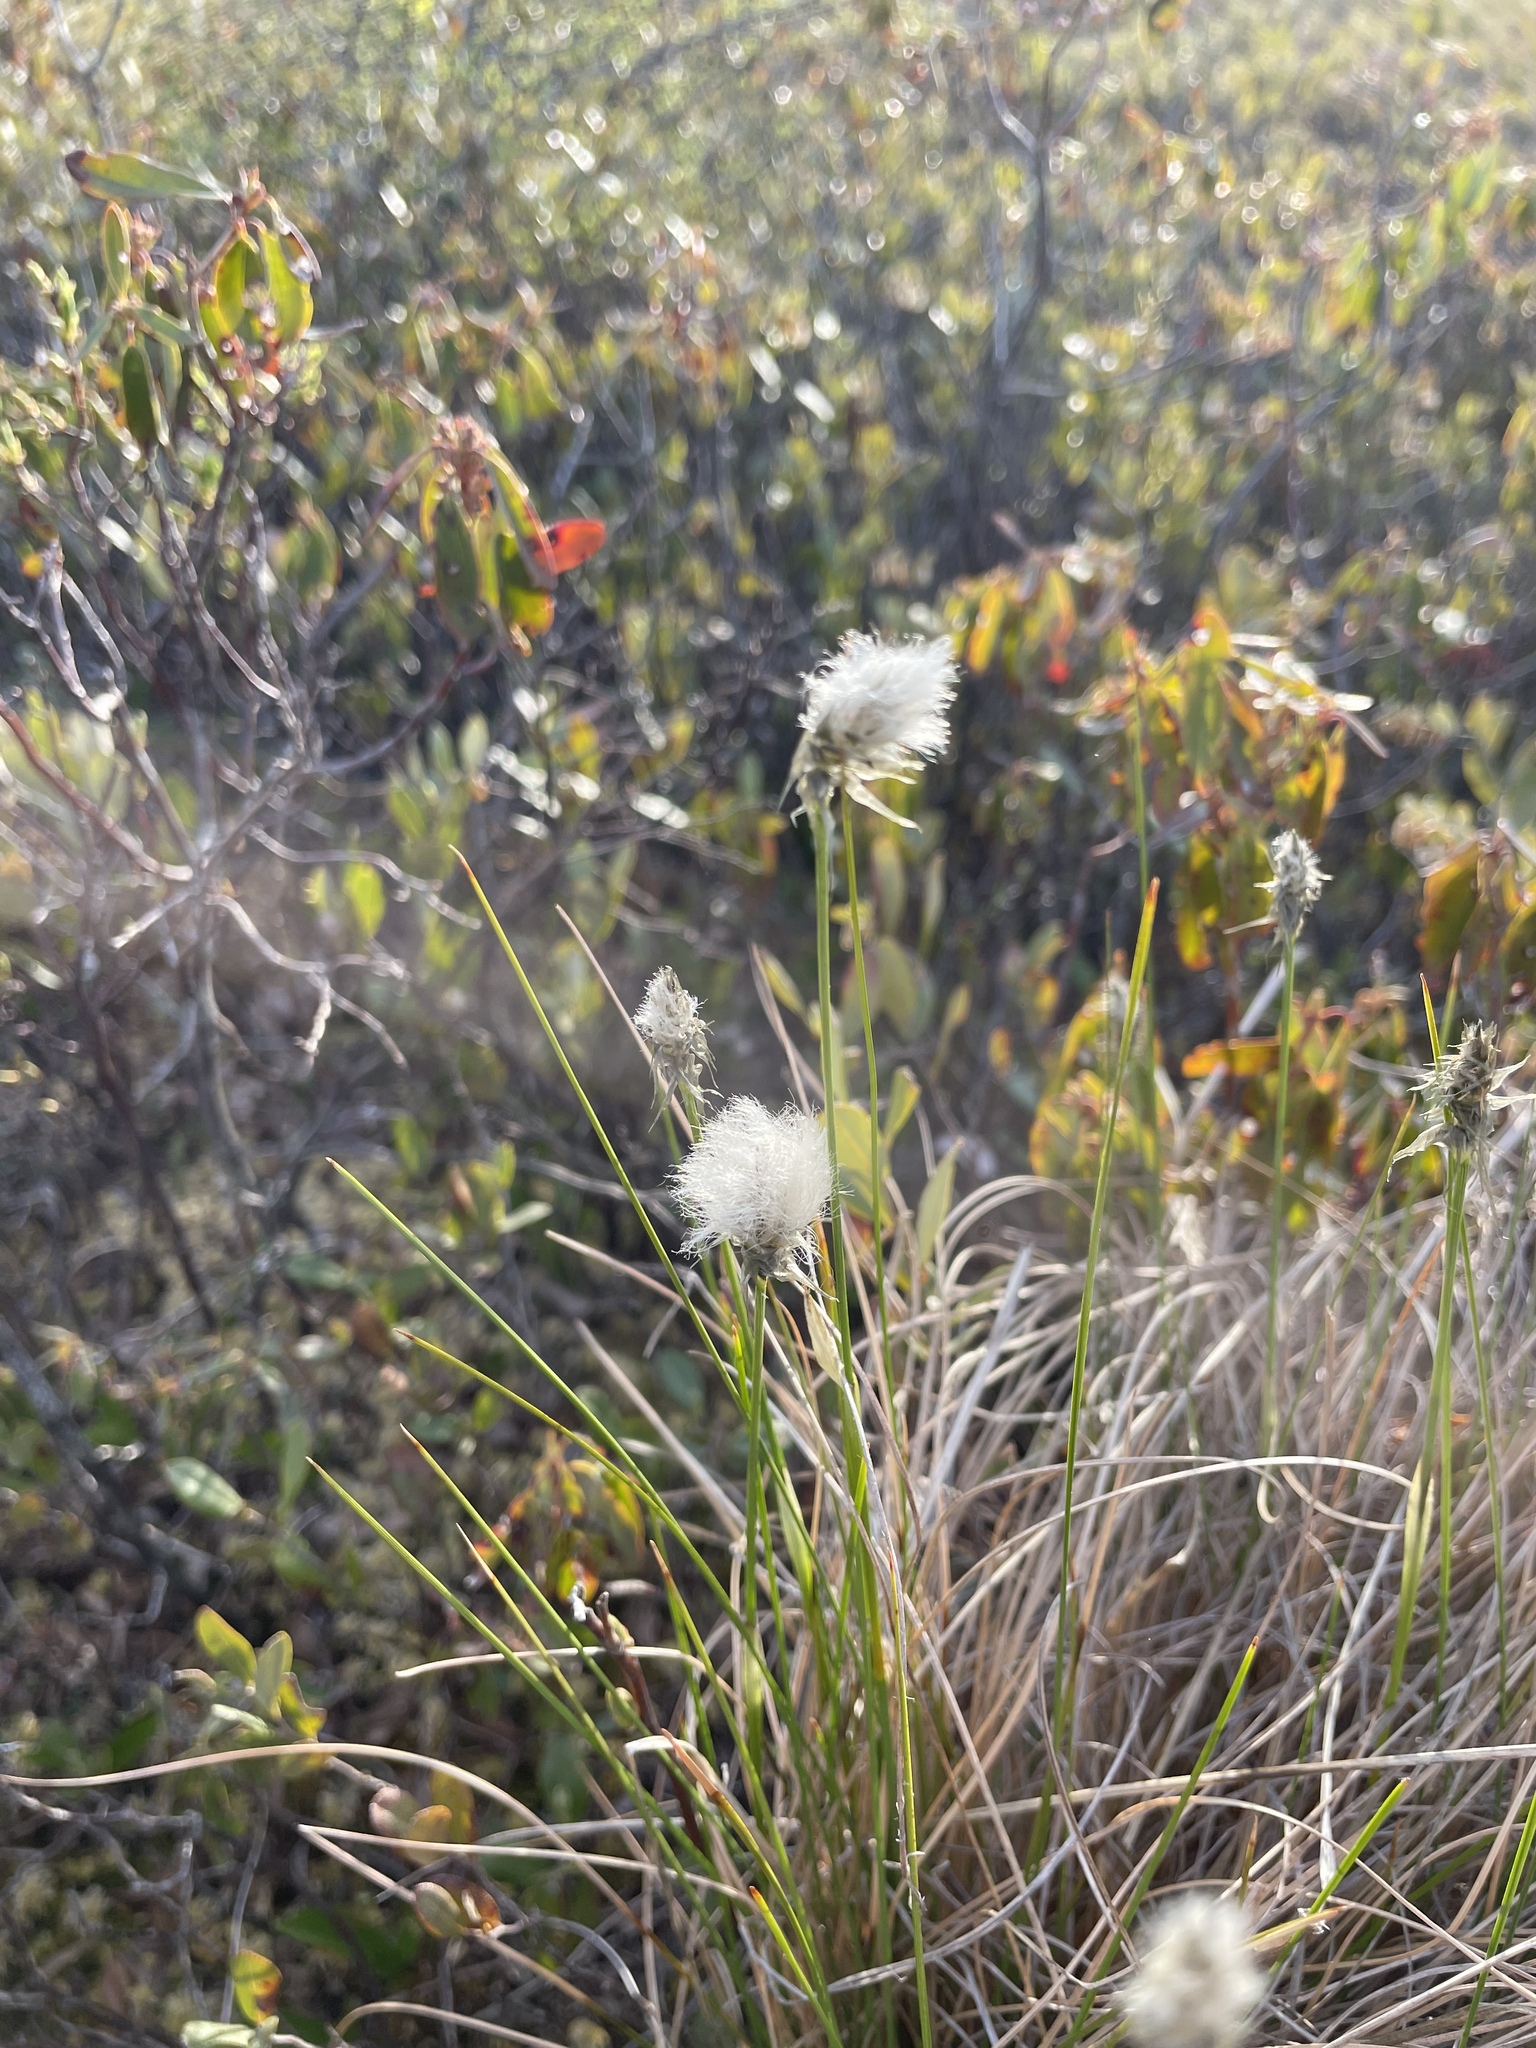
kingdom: Plantae
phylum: Tracheophyta
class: Liliopsida
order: Poales
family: Cyperaceae
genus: Eriophorum
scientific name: Eriophorum vaginatum
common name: Hare's-tail cottongrass
